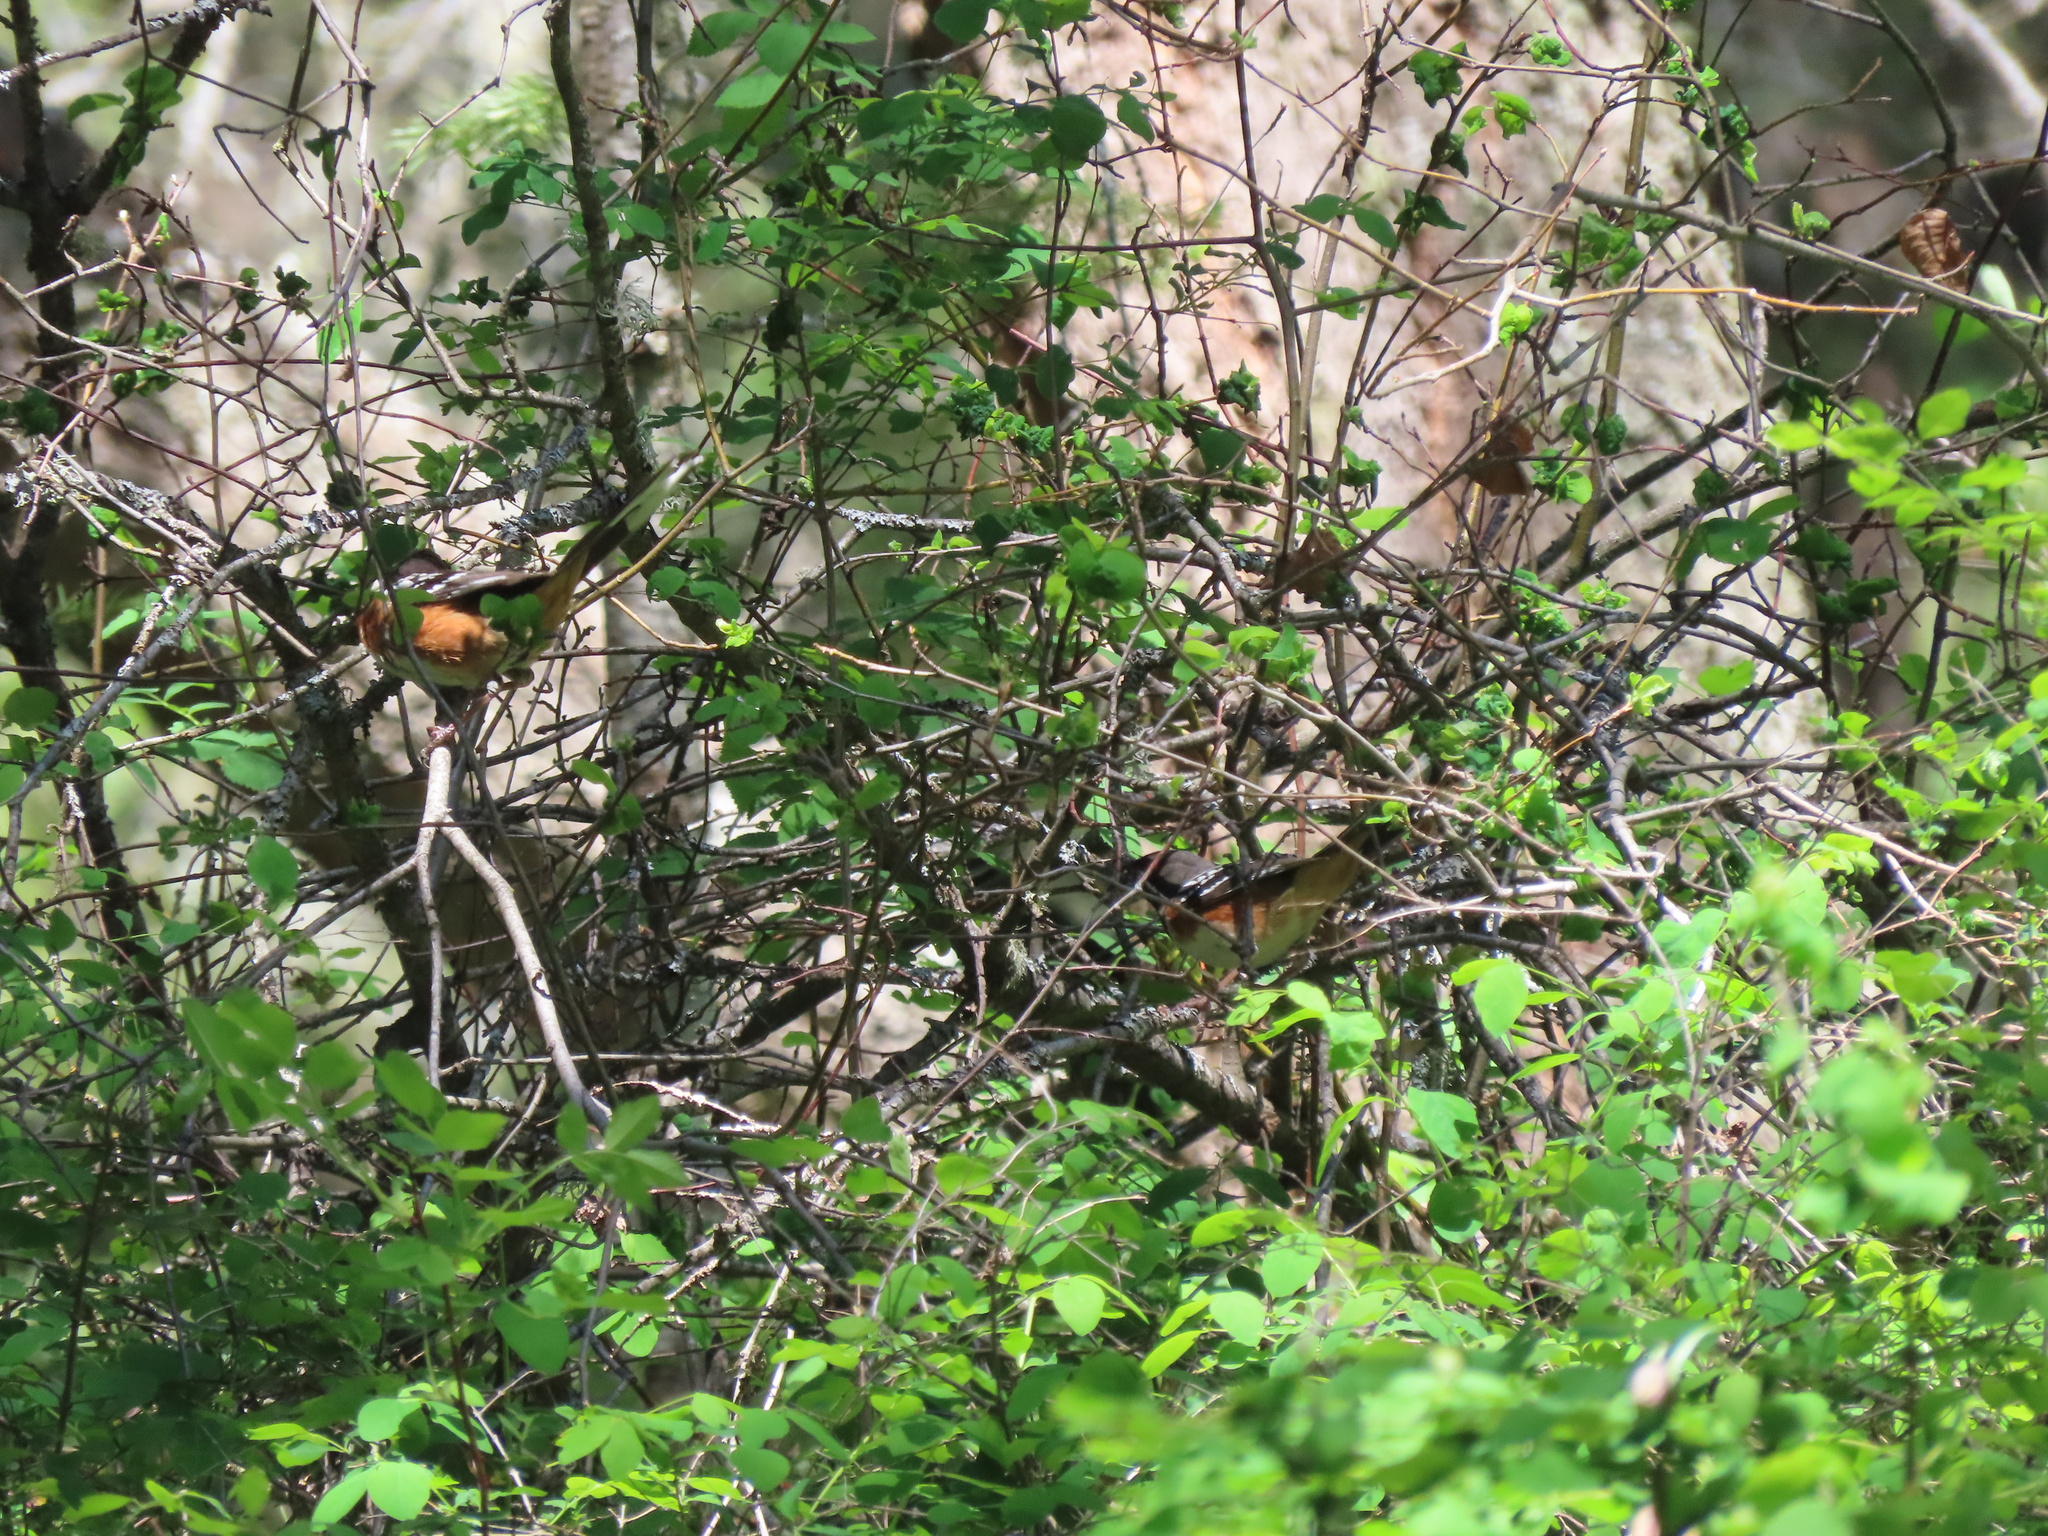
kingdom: Animalia
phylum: Chordata
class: Aves
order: Passeriformes
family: Passerellidae
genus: Pipilo
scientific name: Pipilo maculatus
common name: Spotted towhee
